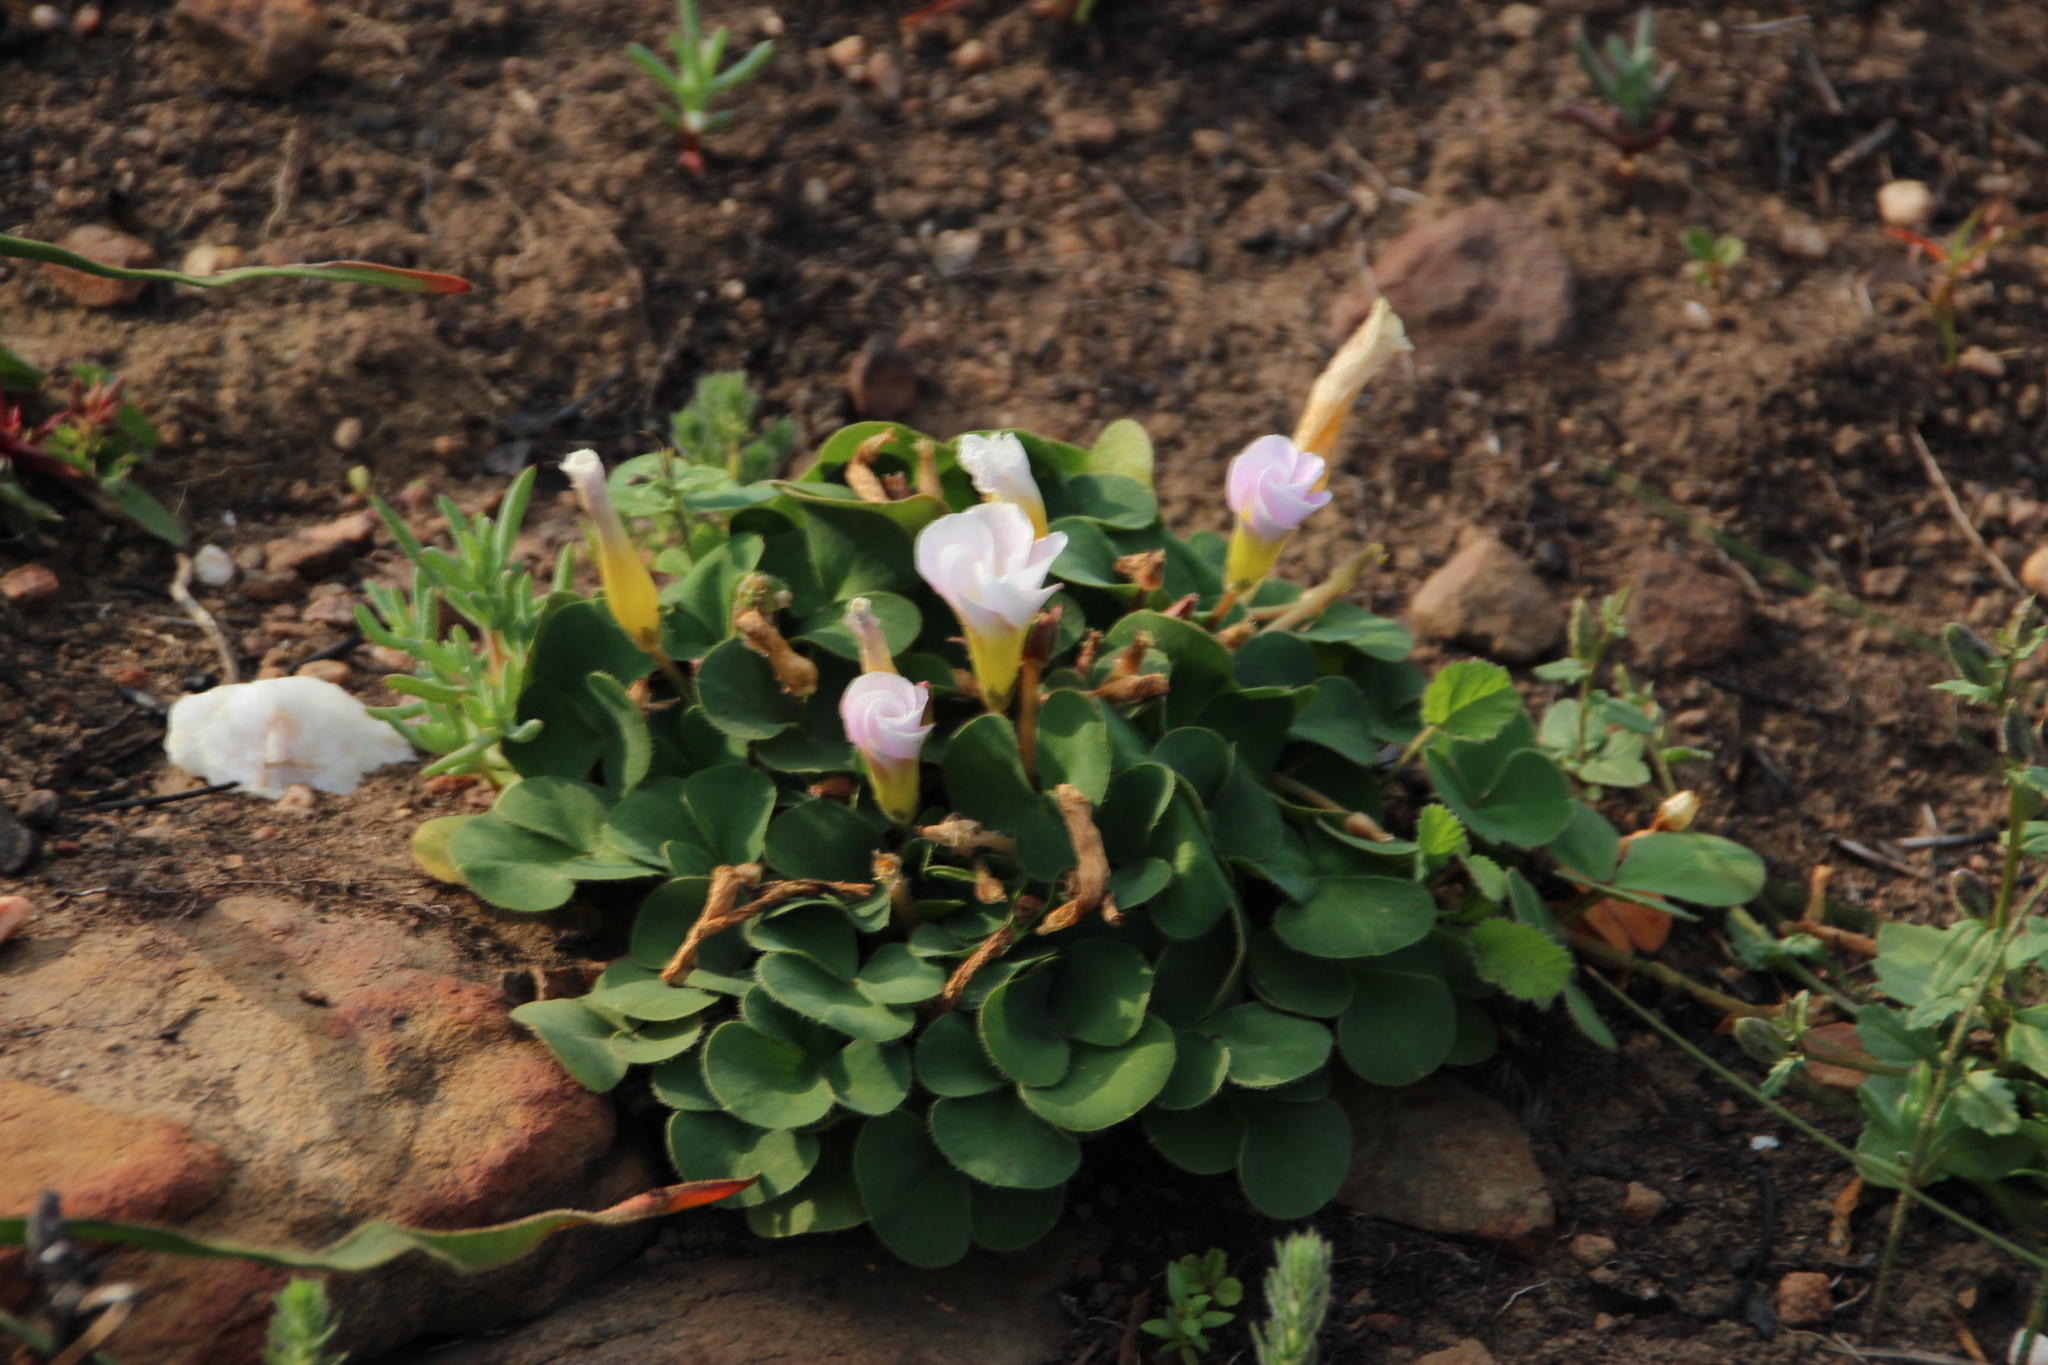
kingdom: Plantae
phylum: Tracheophyta
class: Magnoliopsida
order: Oxalidales
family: Oxalidaceae
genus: Oxalis
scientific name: Oxalis purpurea
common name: Purple woodsorrel
